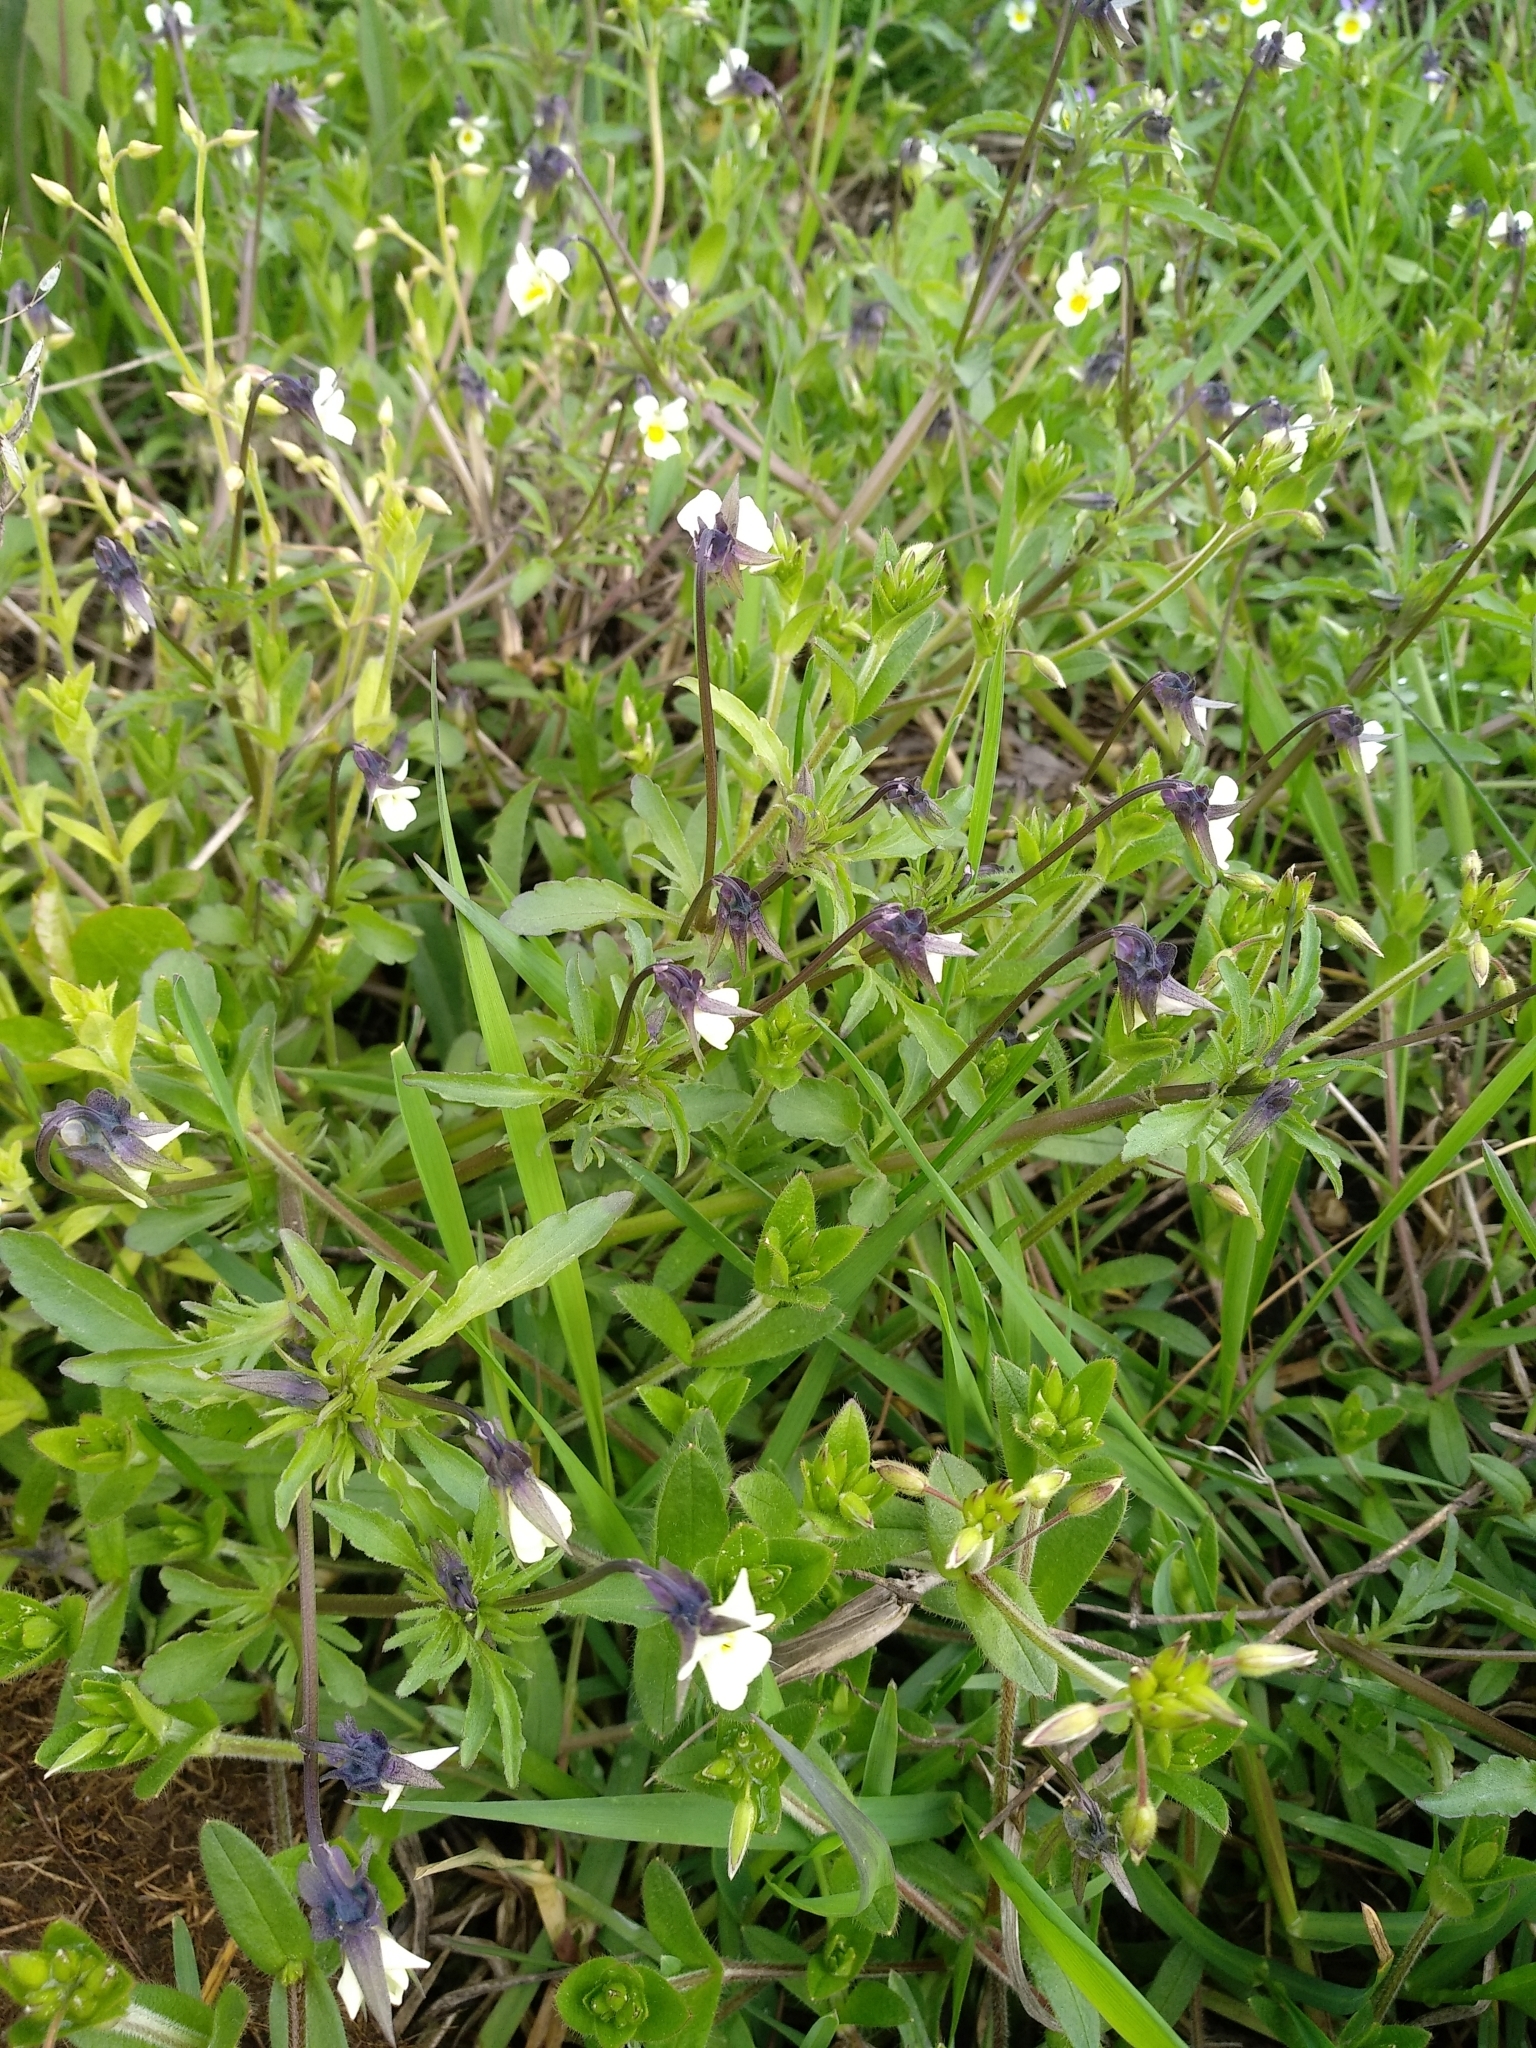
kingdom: Plantae
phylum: Tracheophyta
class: Magnoliopsida
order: Malpighiales
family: Violaceae
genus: Viola
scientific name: Viola arvensis
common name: Field pansy
